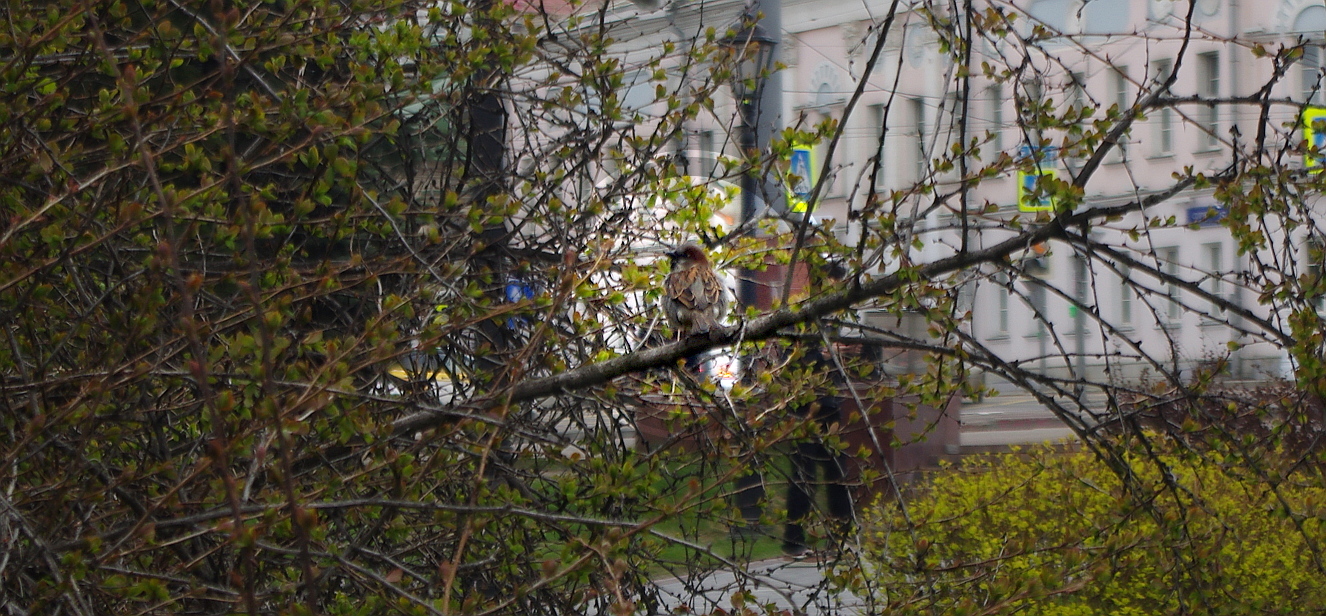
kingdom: Animalia
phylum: Chordata
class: Aves
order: Passeriformes
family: Passeridae
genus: Passer
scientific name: Passer domesticus
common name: House sparrow
